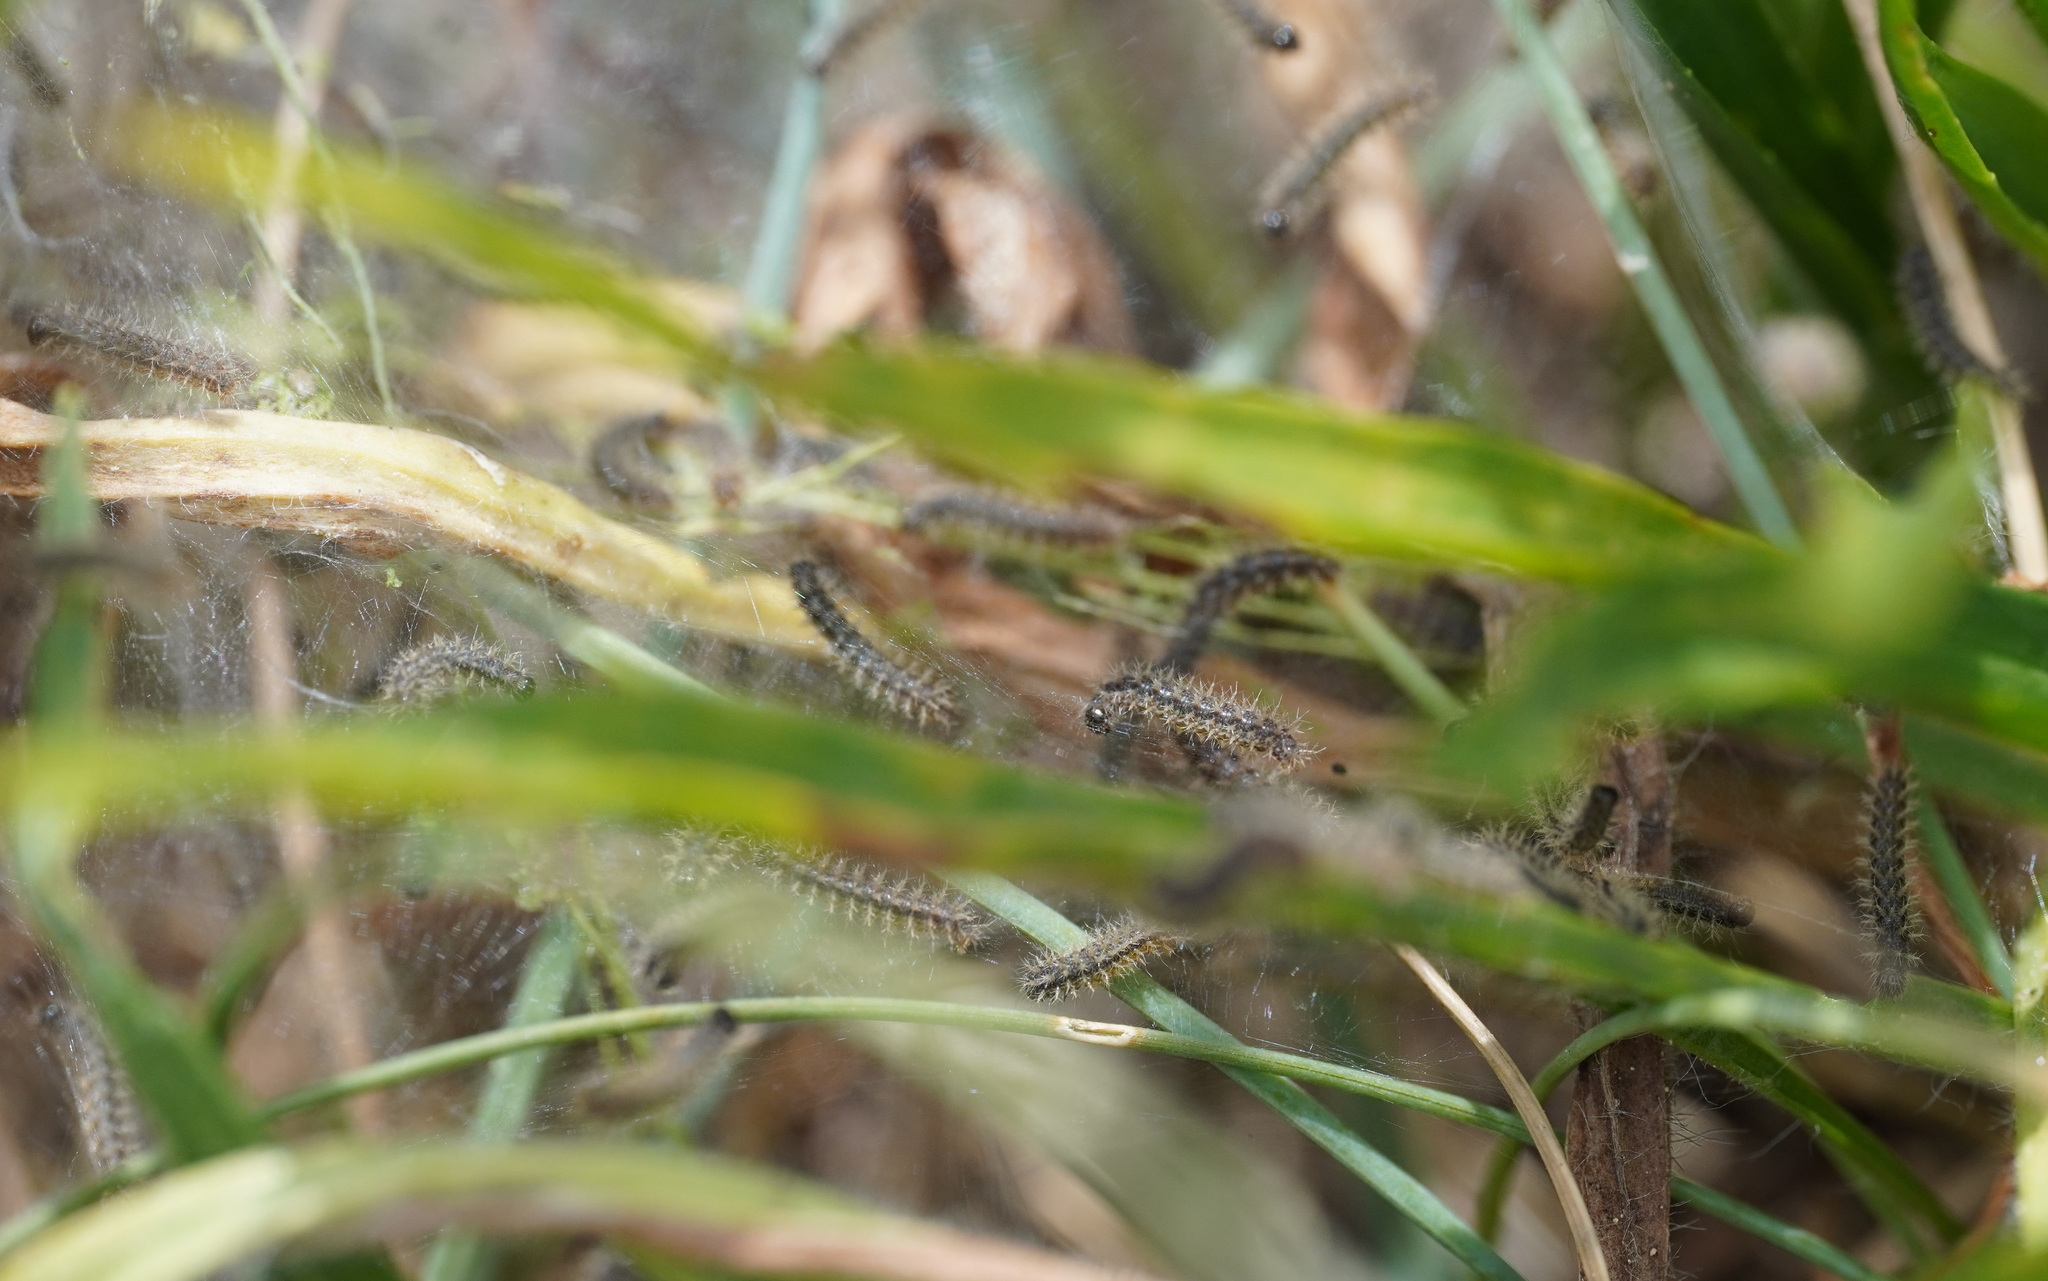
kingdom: Animalia
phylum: Arthropoda
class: Insecta
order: Lepidoptera
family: Nymphalidae
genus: Melitaea
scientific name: Melitaea cinxia
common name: Glanville fritillary
